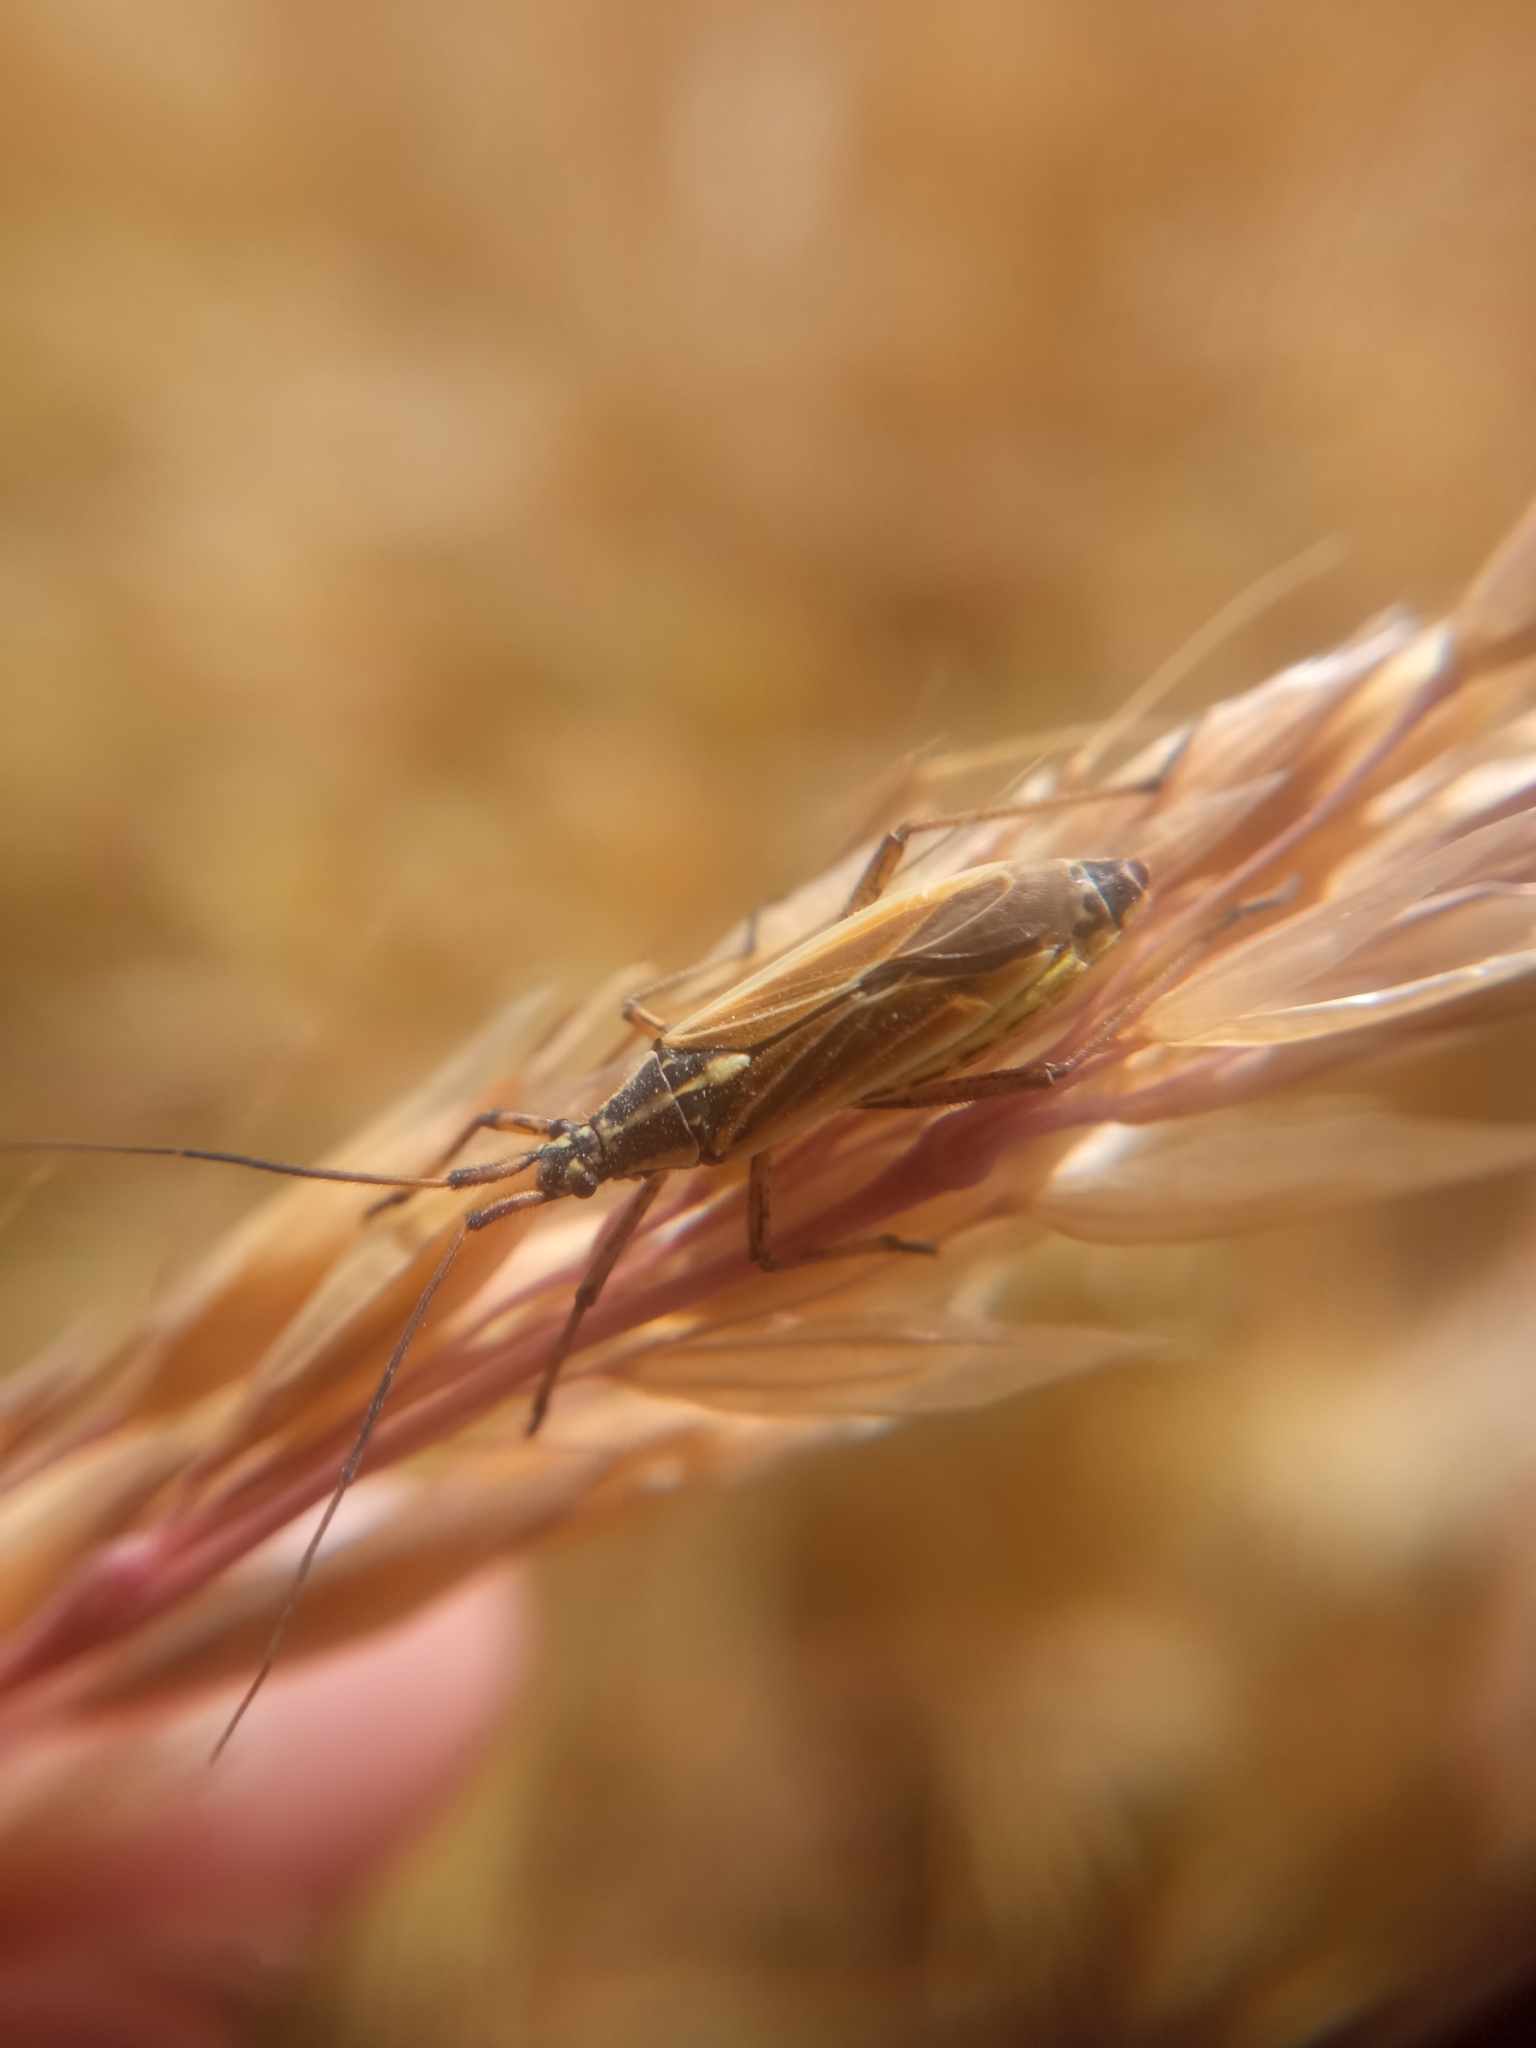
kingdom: Animalia
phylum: Arthropoda
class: Insecta
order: Hemiptera
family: Miridae
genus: Leptopterna
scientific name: Leptopterna dolabrata
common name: Meadow plant bug
